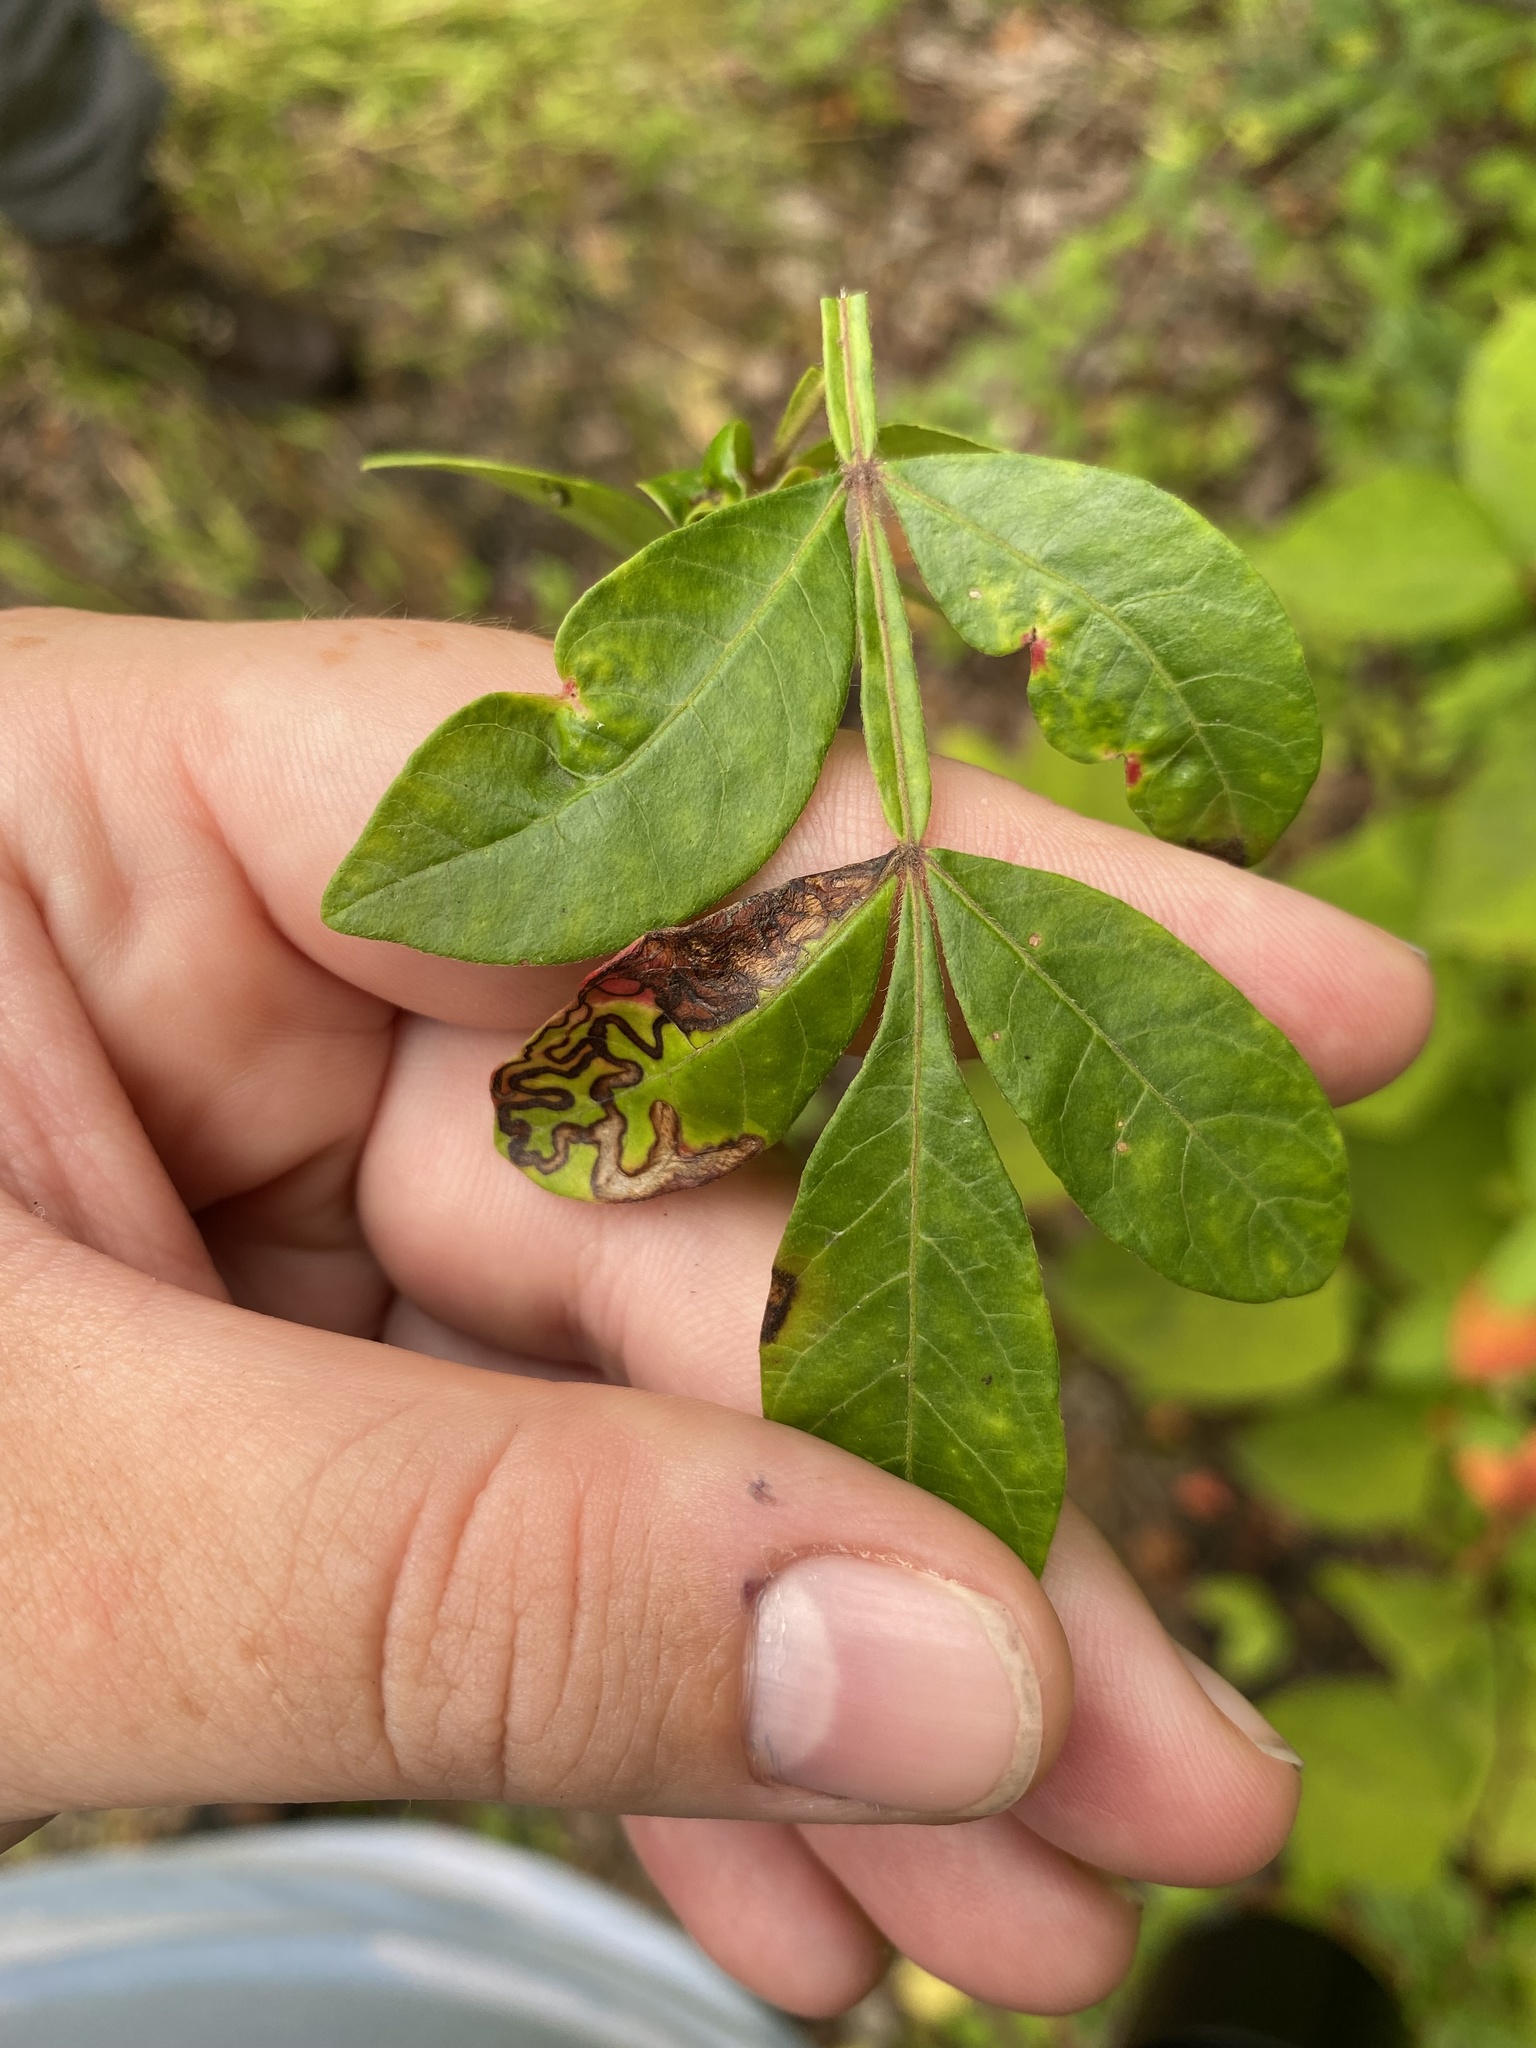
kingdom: Animalia
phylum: Arthropoda
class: Insecta
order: Lepidoptera
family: Nepticulidae
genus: Stigmella
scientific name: Stigmella intermedia
